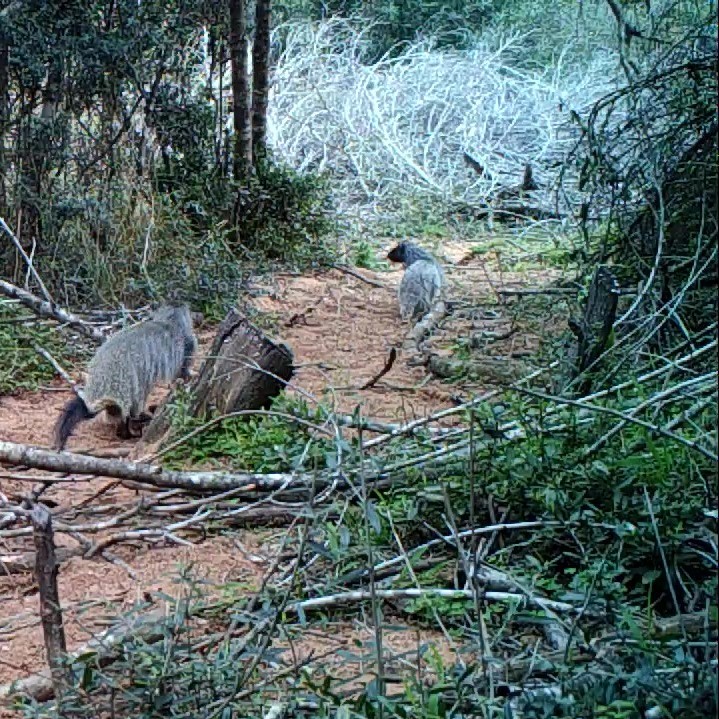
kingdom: Animalia
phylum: Chordata
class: Mammalia
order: Carnivora
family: Herpestidae
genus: Herpestes
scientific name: Herpestes ichneumon
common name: Egyptian mongoose
